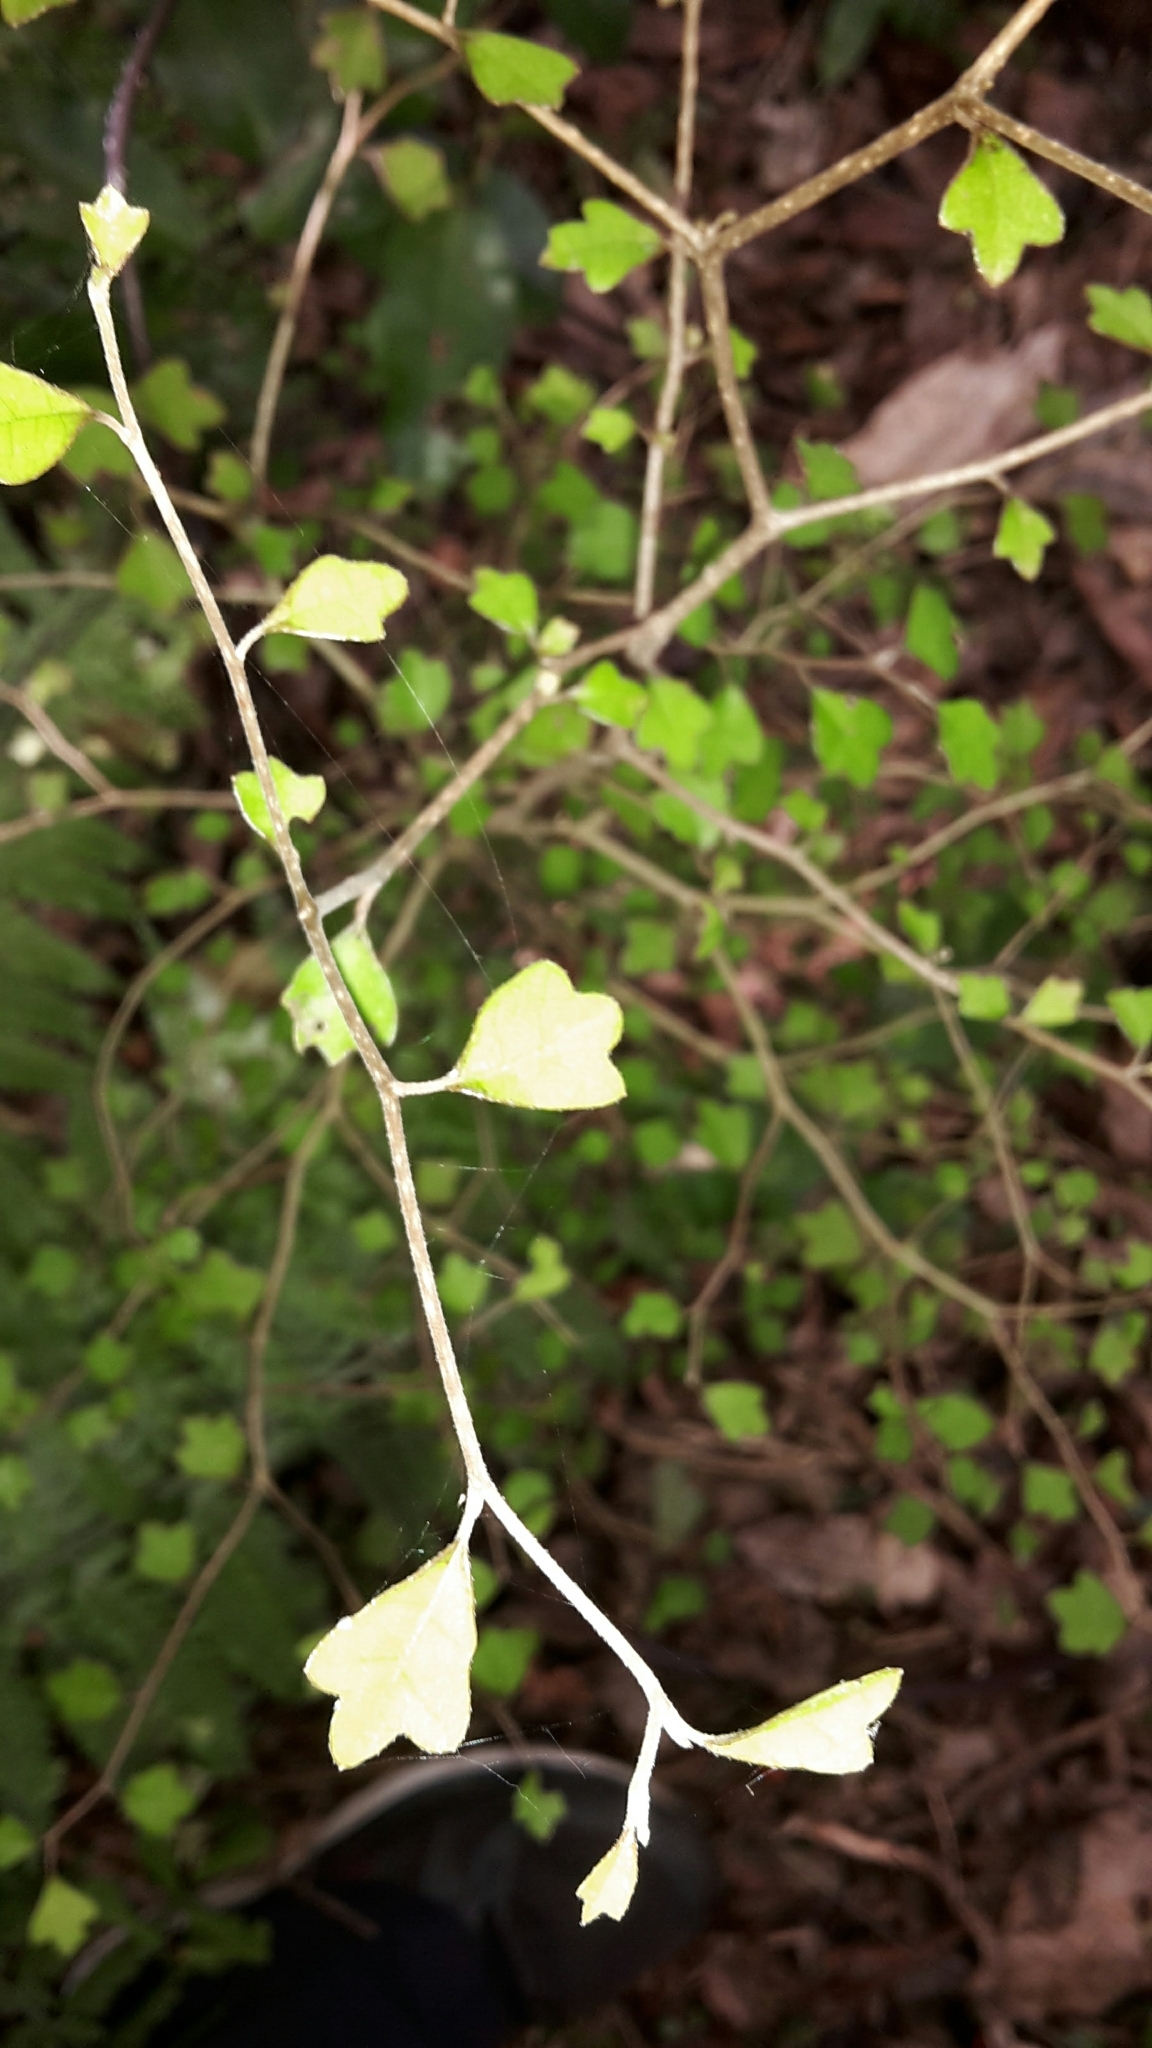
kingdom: Plantae
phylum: Tracheophyta
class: Magnoliopsida
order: Apiales
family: Pennantiaceae
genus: Pennantia
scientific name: Pennantia corymbosa
